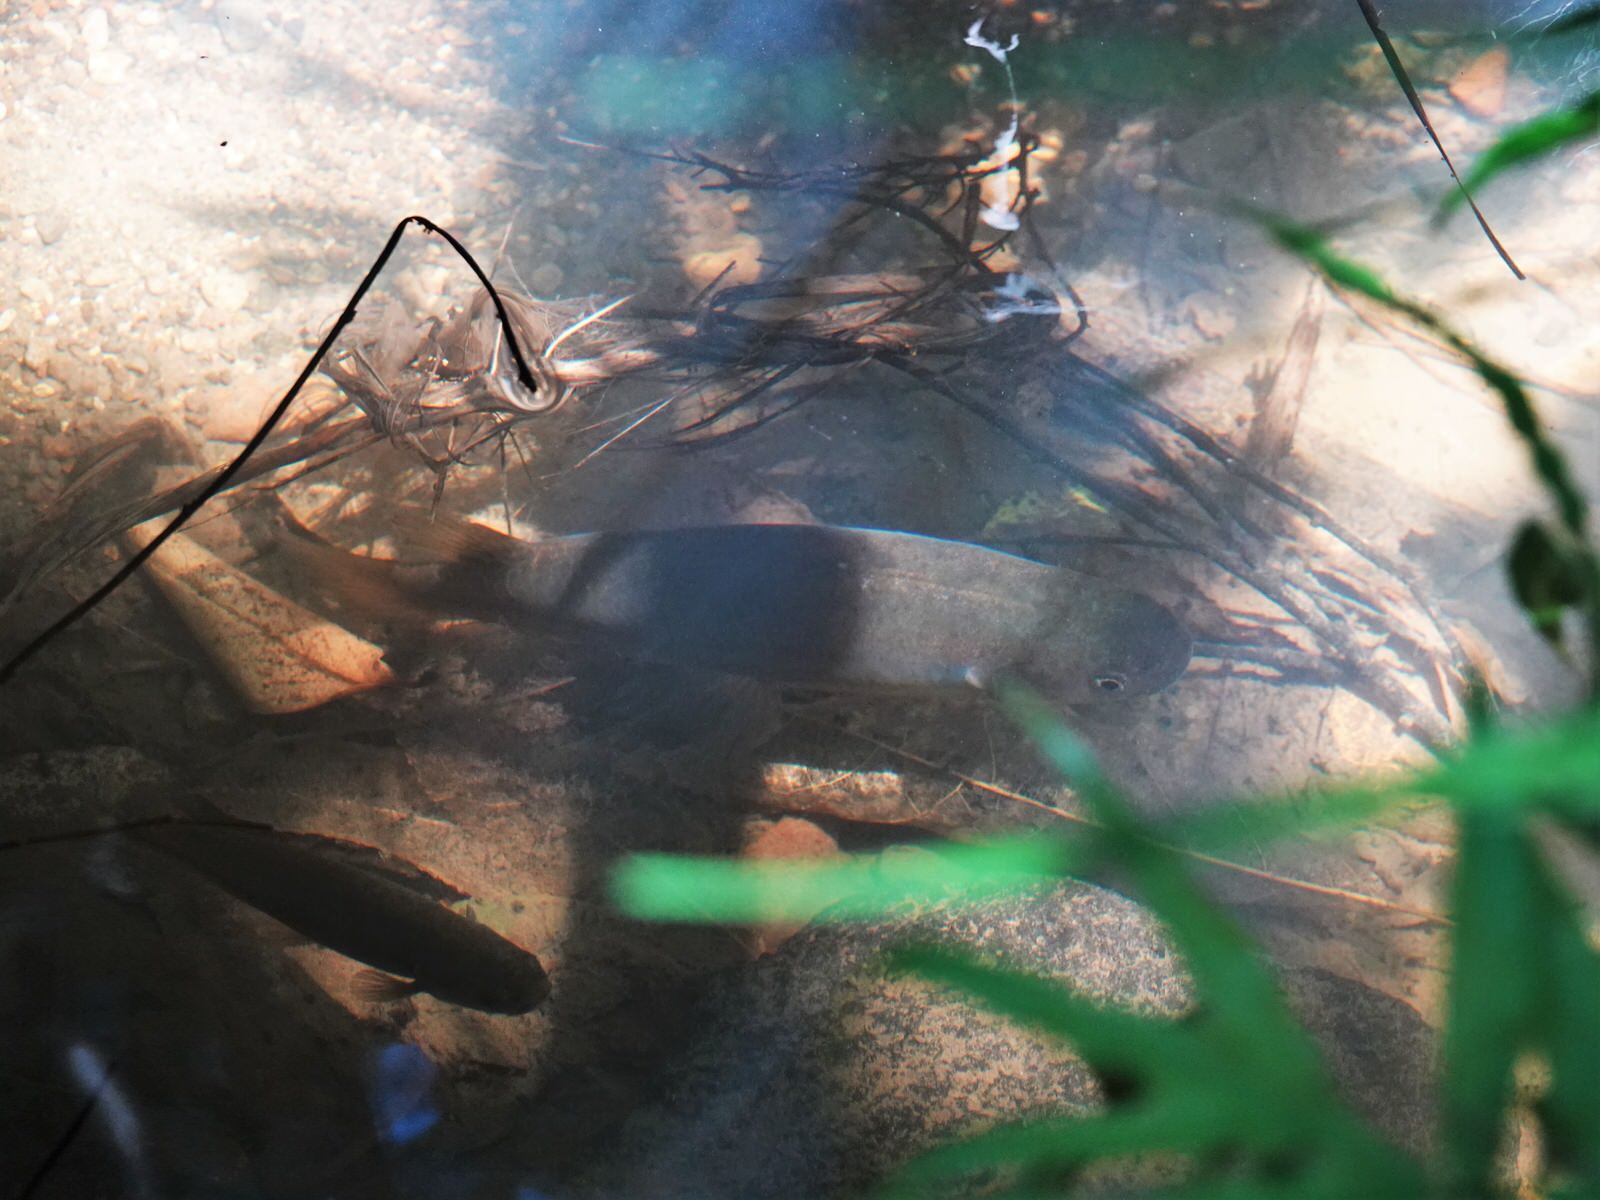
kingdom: Animalia
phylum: Chordata
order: Osmeriformes
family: Galaxiidae
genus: Galaxias
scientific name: Galaxias fasciatus
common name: Banded kokopu
